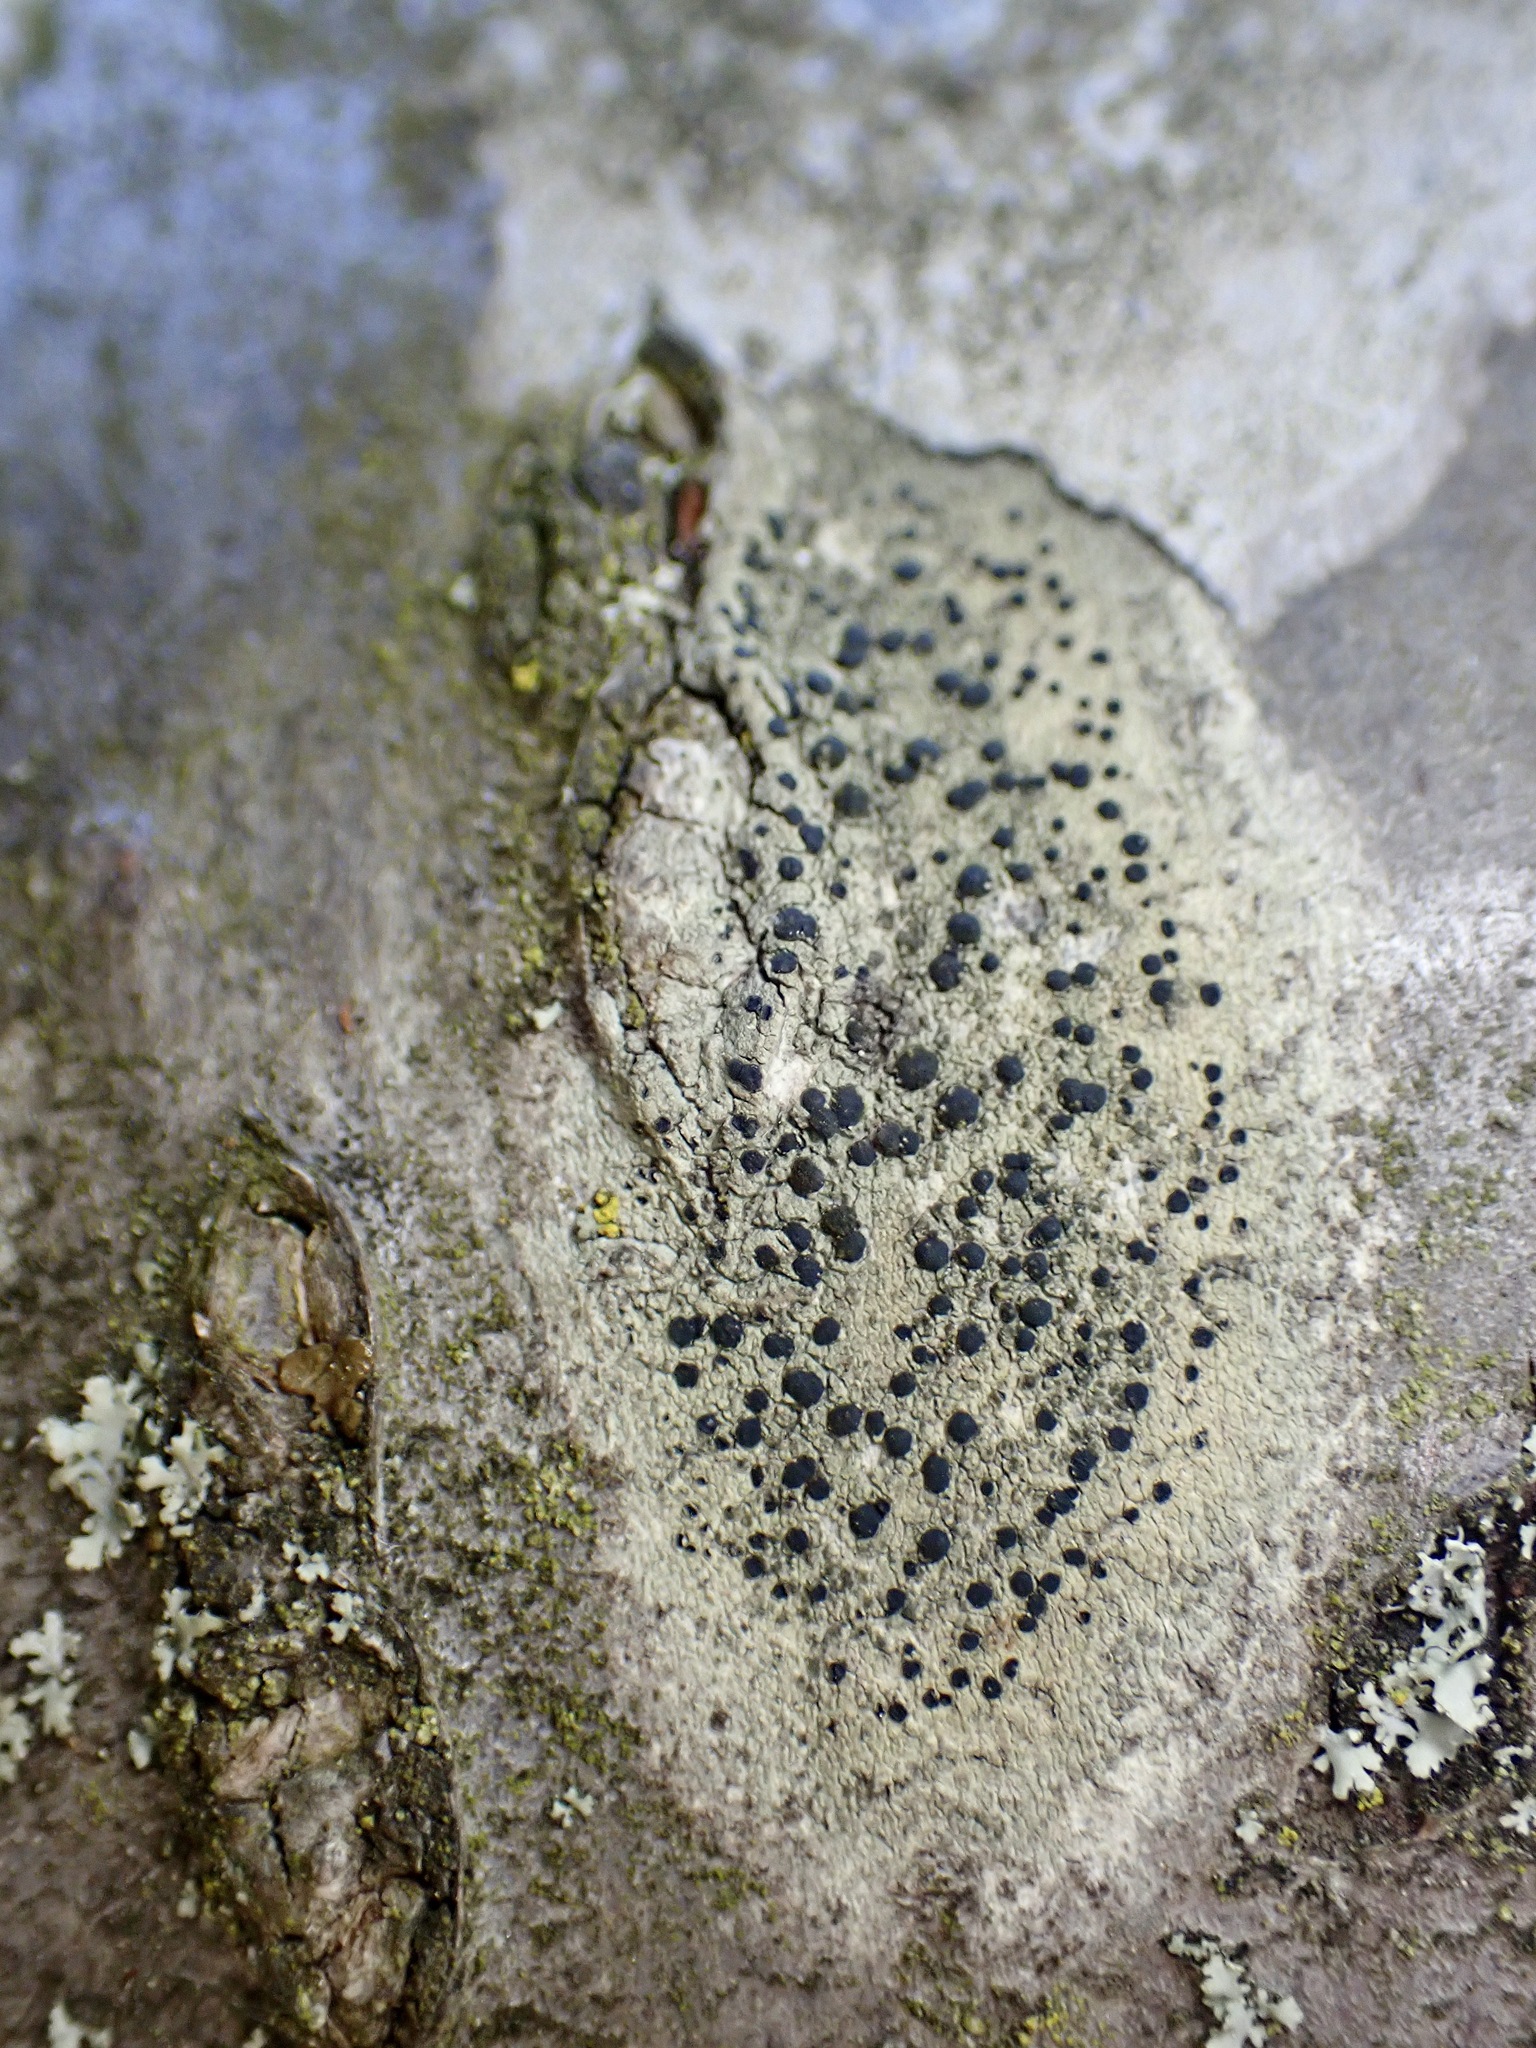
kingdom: Fungi
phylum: Ascomycota
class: Lecanoromycetes
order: Lecanorales
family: Lecanoraceae
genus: Lecidella
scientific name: Lecidella elaeochroma
